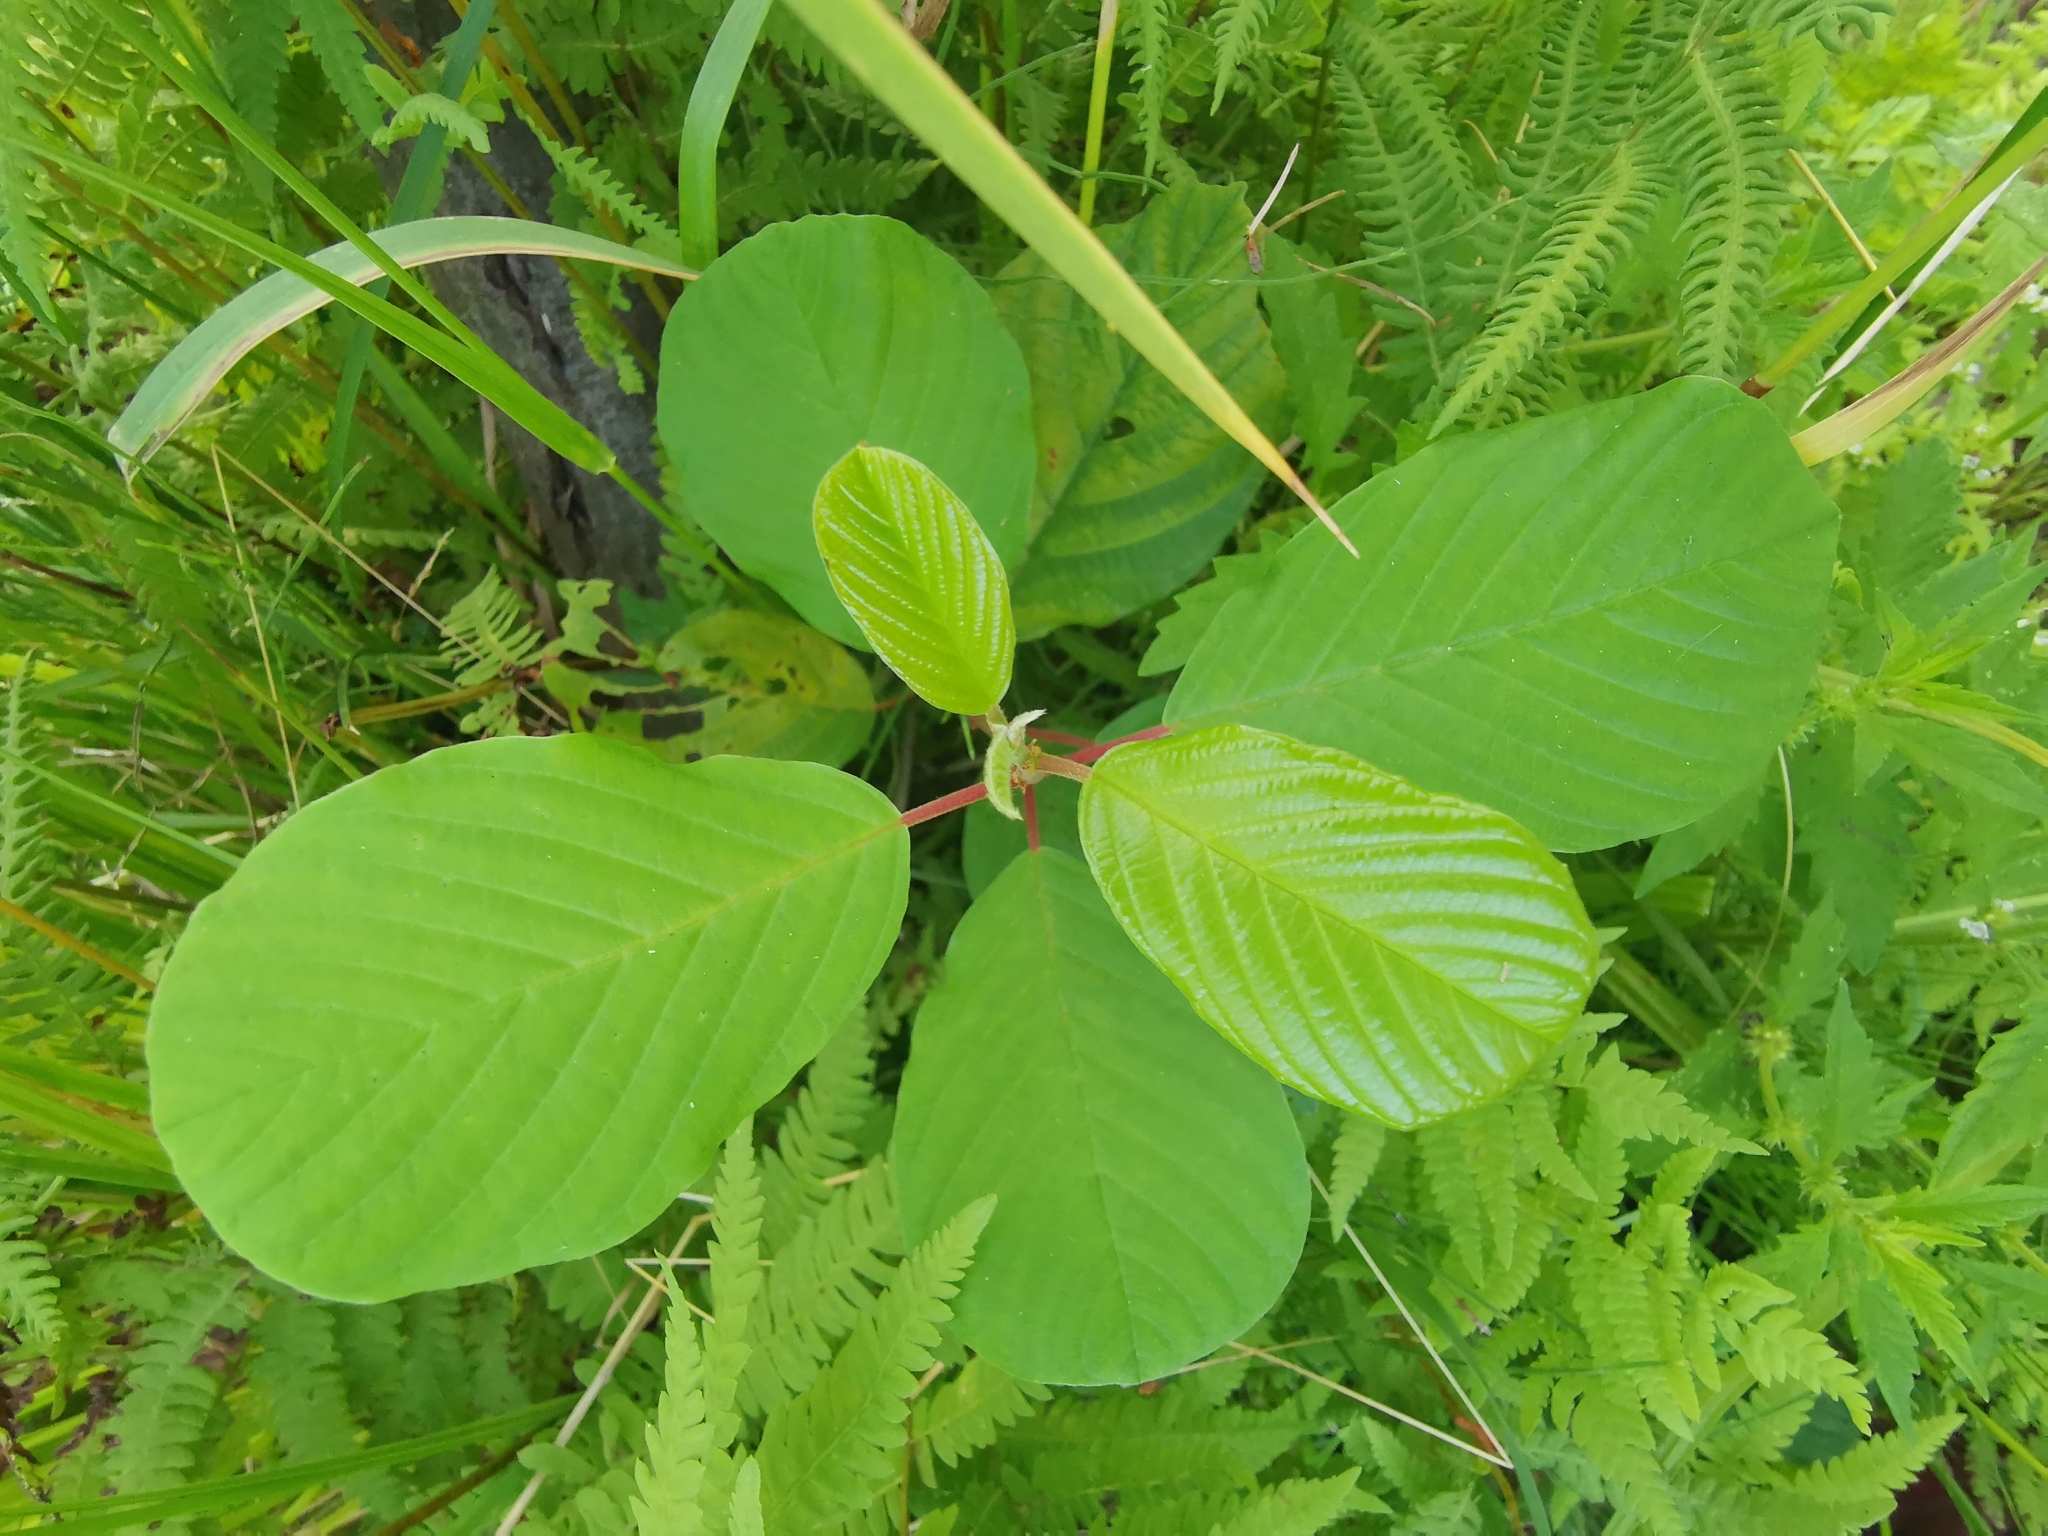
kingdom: Plantae
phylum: Tracheophyta
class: Magnoliopsida
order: Rosales
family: Rhamnaceae
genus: Frangula
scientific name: Frangula alnus
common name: Alder buckthorn
